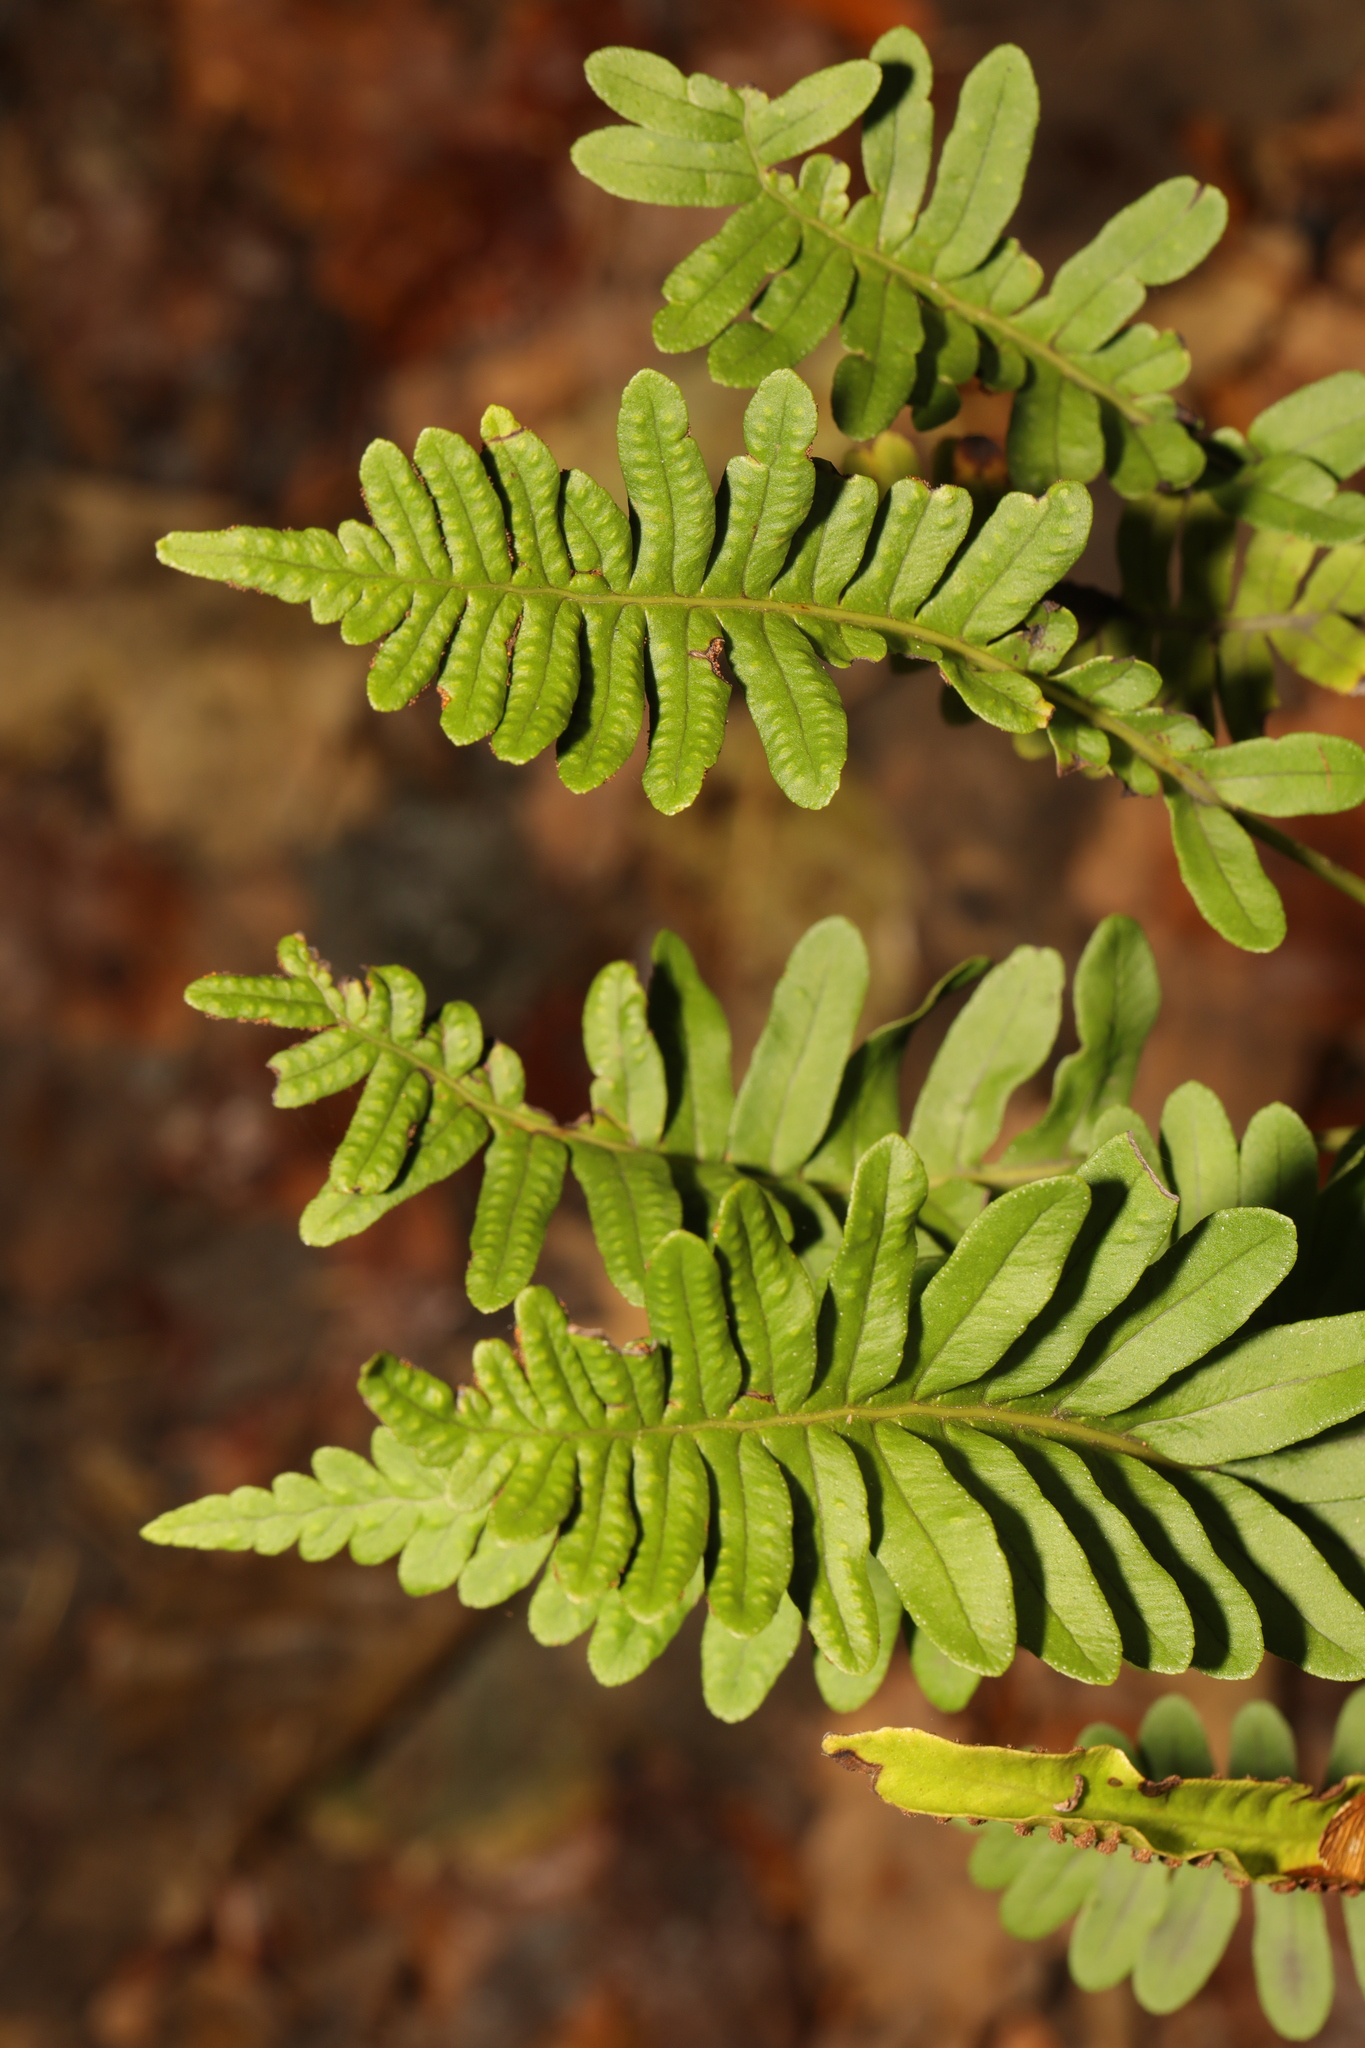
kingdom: Plantae
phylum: Tracheophyta
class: Polypodiopsida
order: Polypodiales
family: Polypodiaceae
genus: Polypodium
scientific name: Polypodium interjectum
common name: Intermediate polypody
